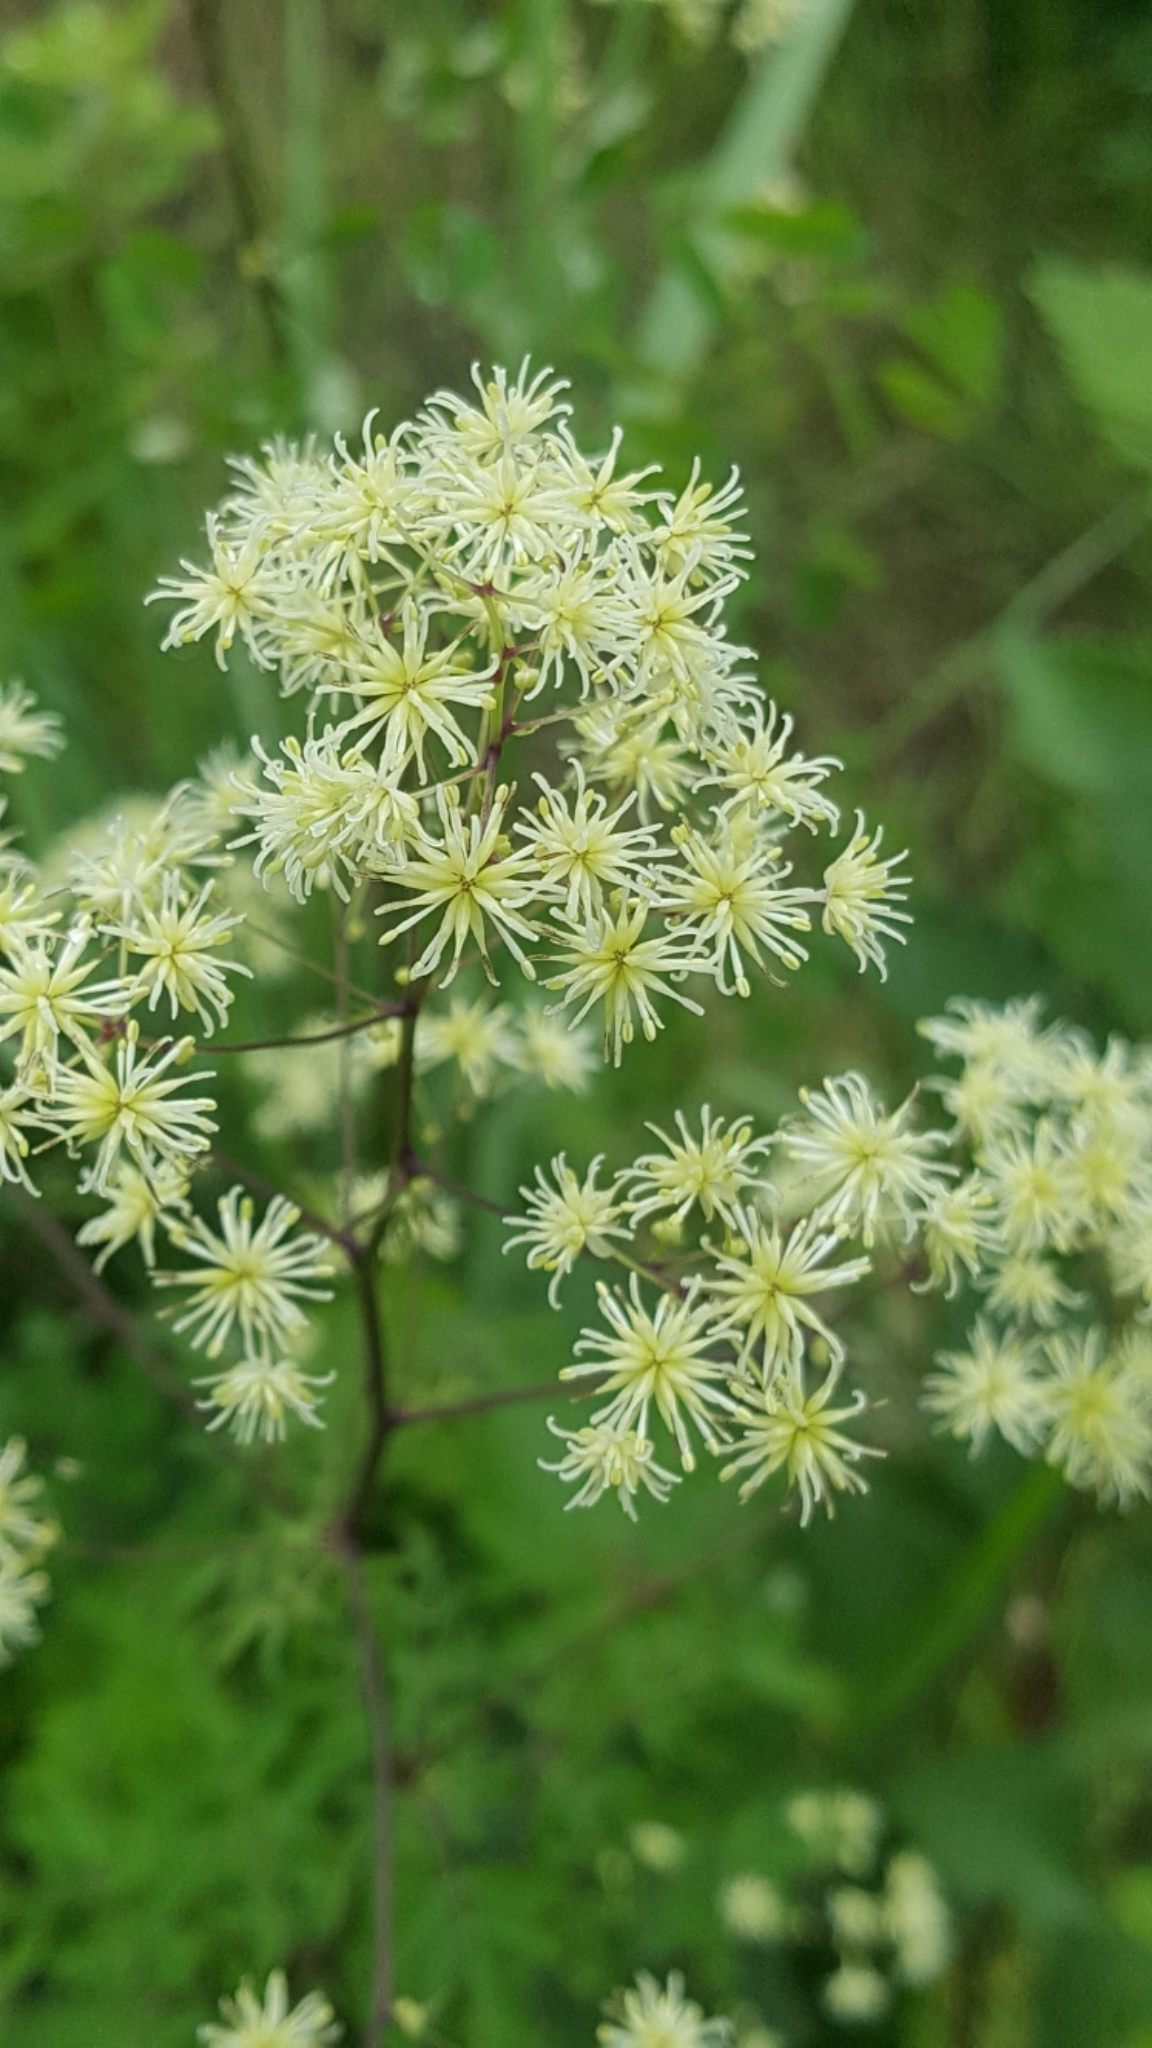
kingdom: Plantae
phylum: Tracheophyta
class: Magnoliopsida
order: Ranunculales
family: Ranunculaceae
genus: Thalictrum
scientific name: Thalictrum pubescens
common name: King-of-the-meadow
